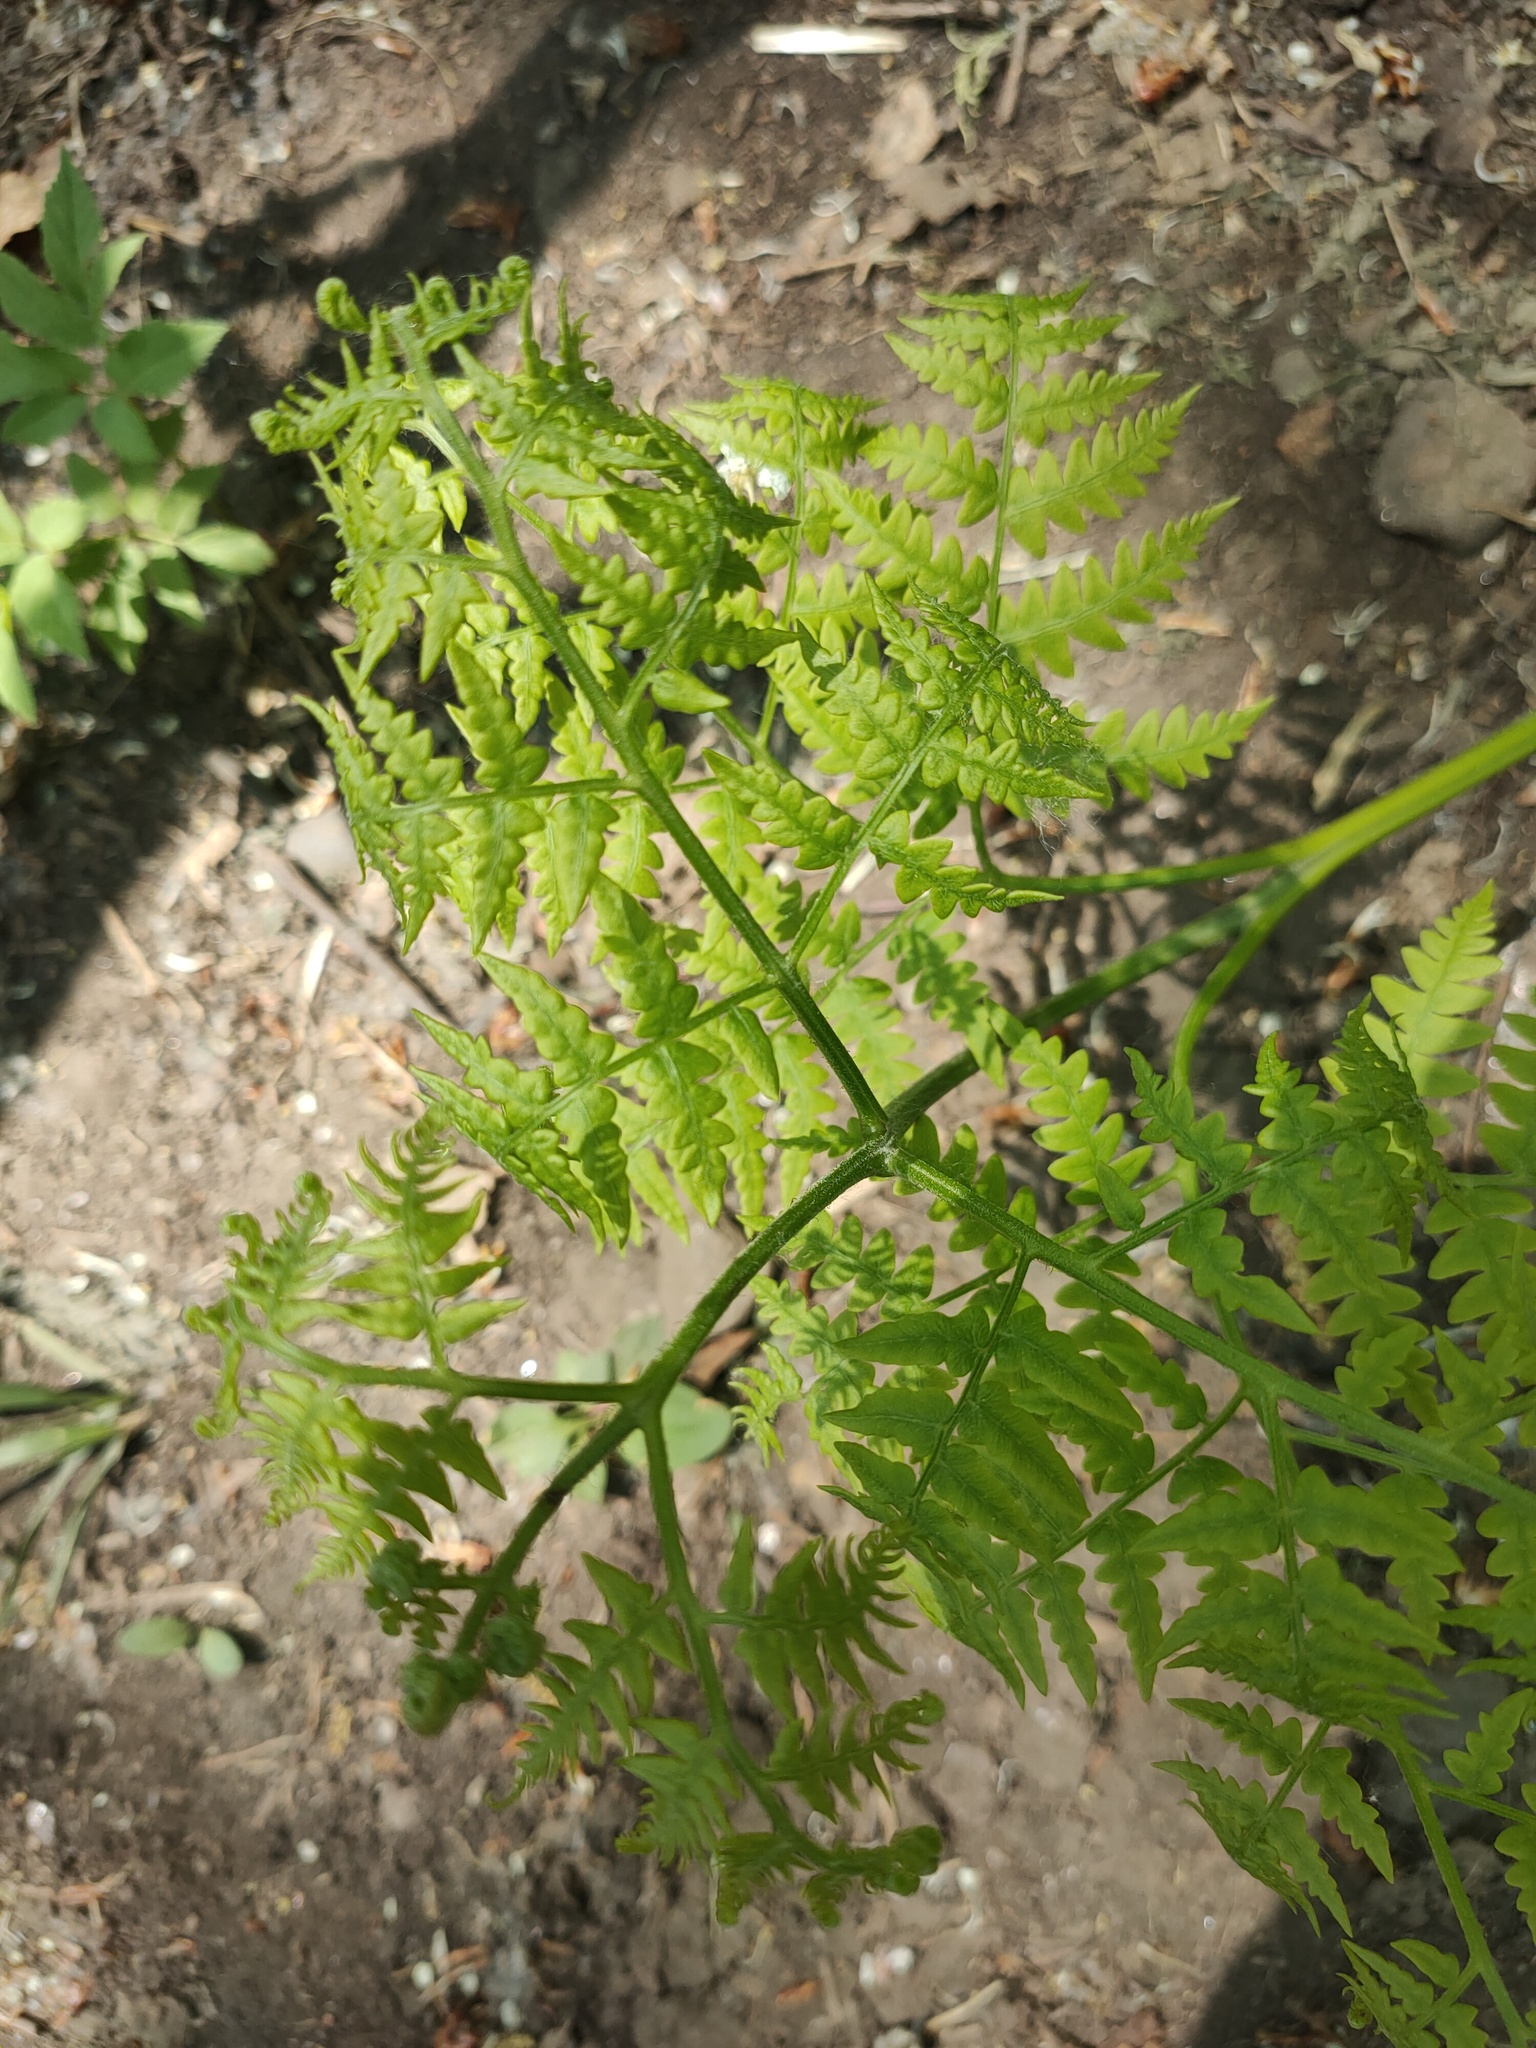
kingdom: Plantae
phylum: Tracheophyta
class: Polypodiopsida
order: Polypodiales
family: Dennstaedtiaceae
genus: Pteridium
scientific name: Pteridium aquilinum
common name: Bracken
